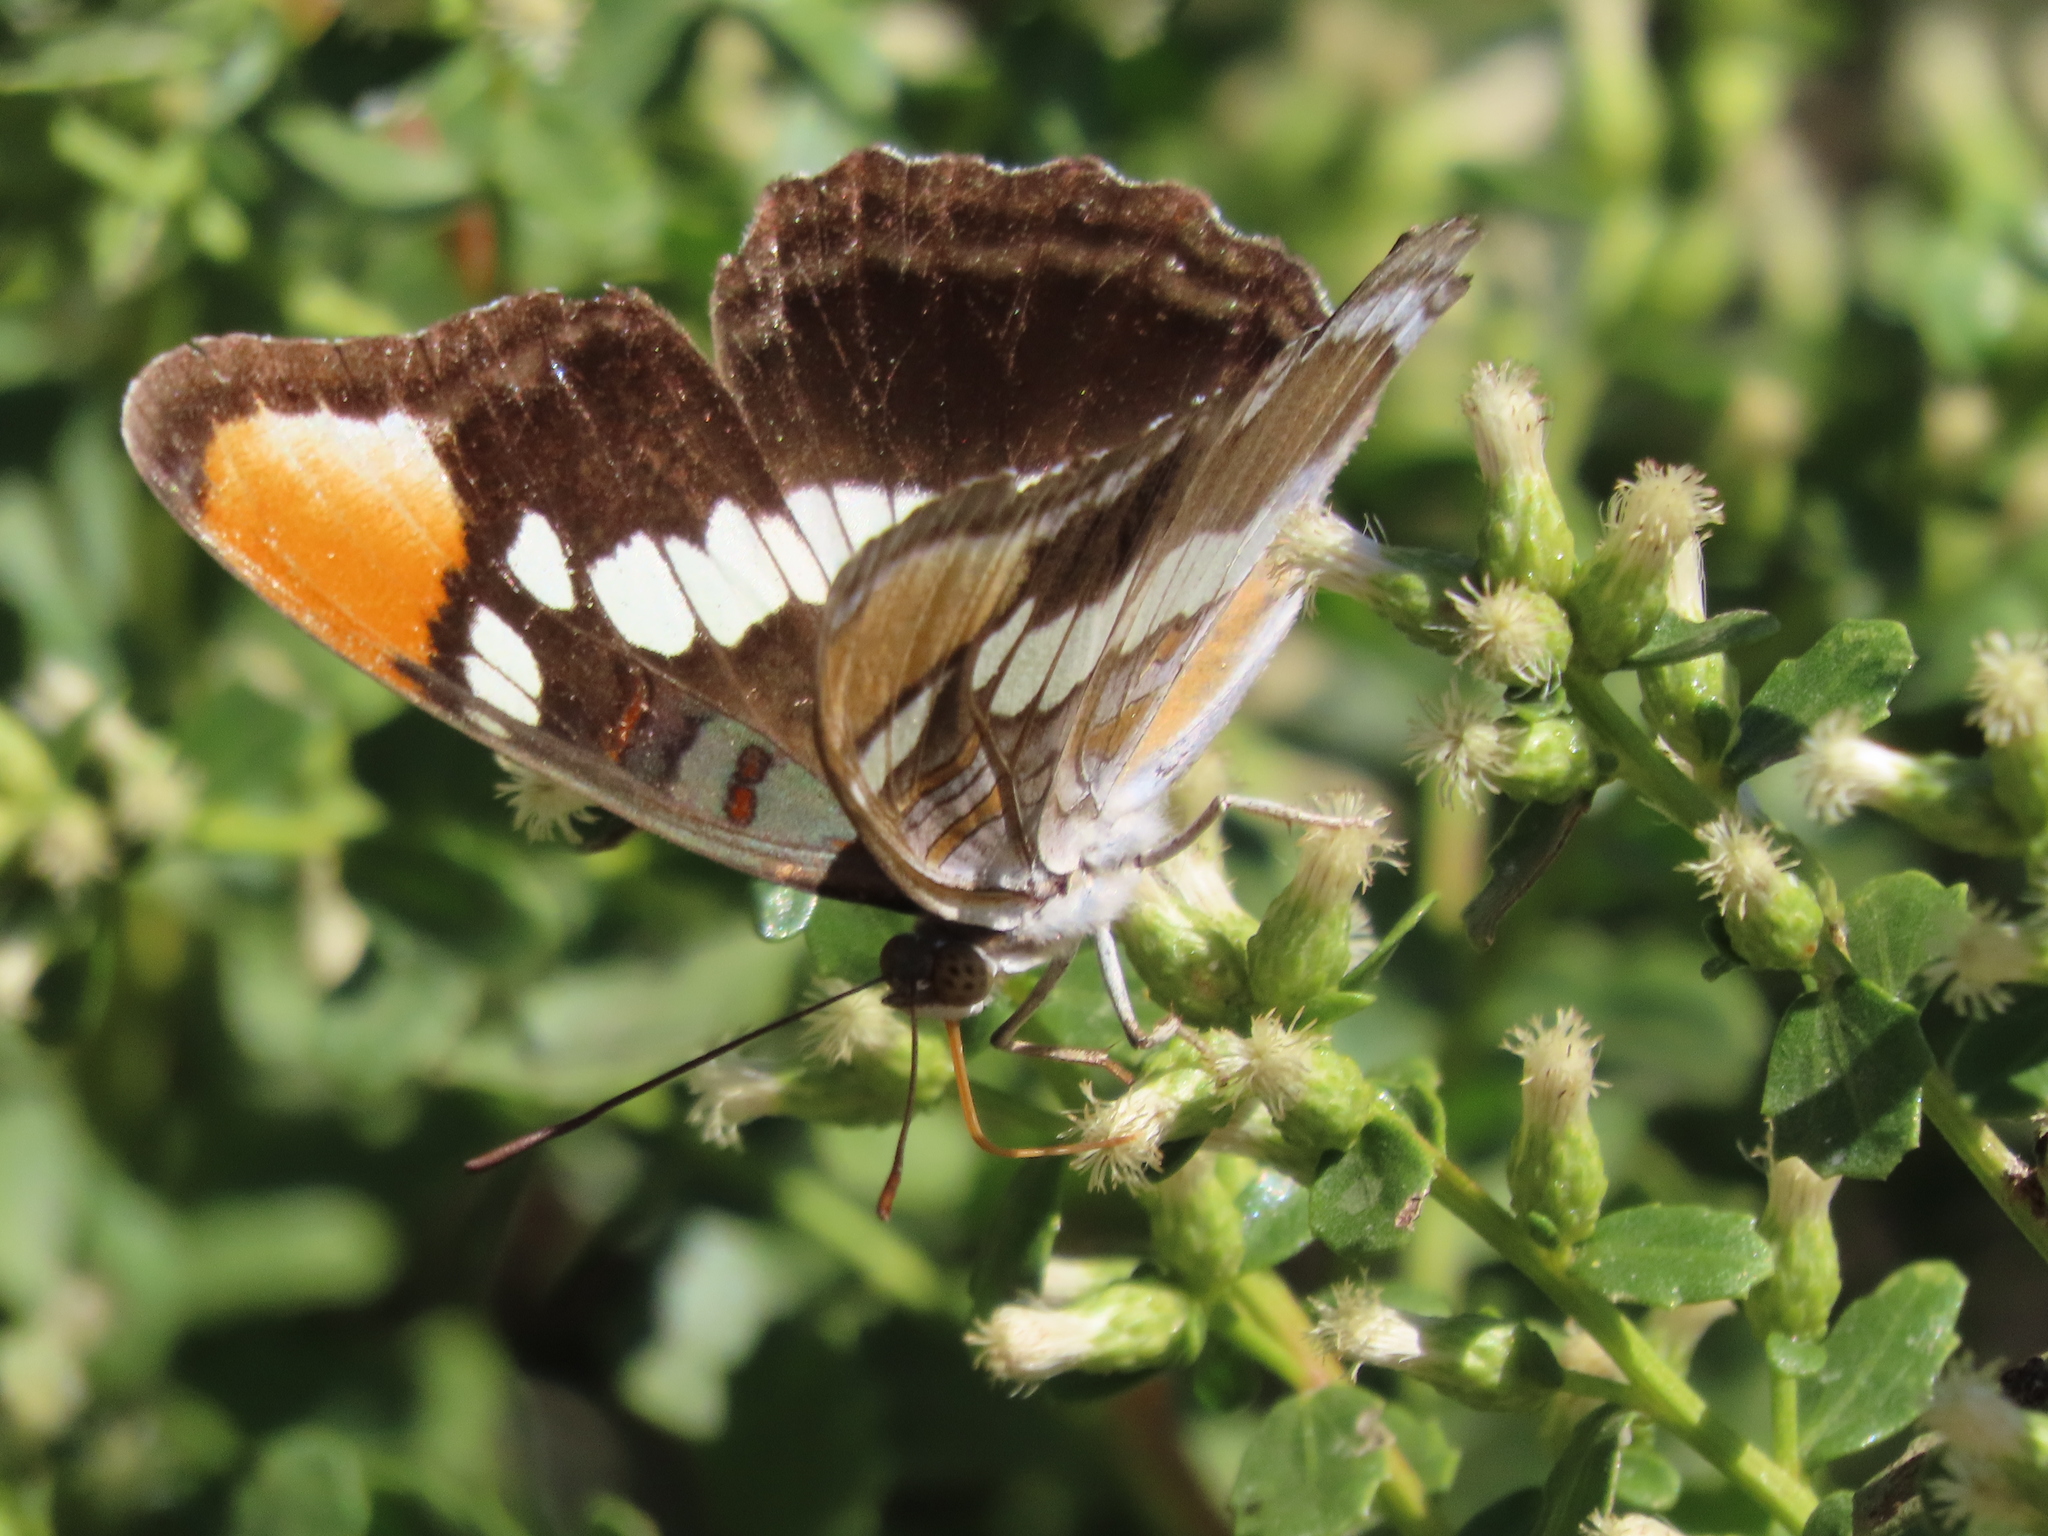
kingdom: Animalia
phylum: Arthropoda
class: Insecta
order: Lepidoptera
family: Nymphalidae
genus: Limenitis
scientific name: Limenitis bredowii
